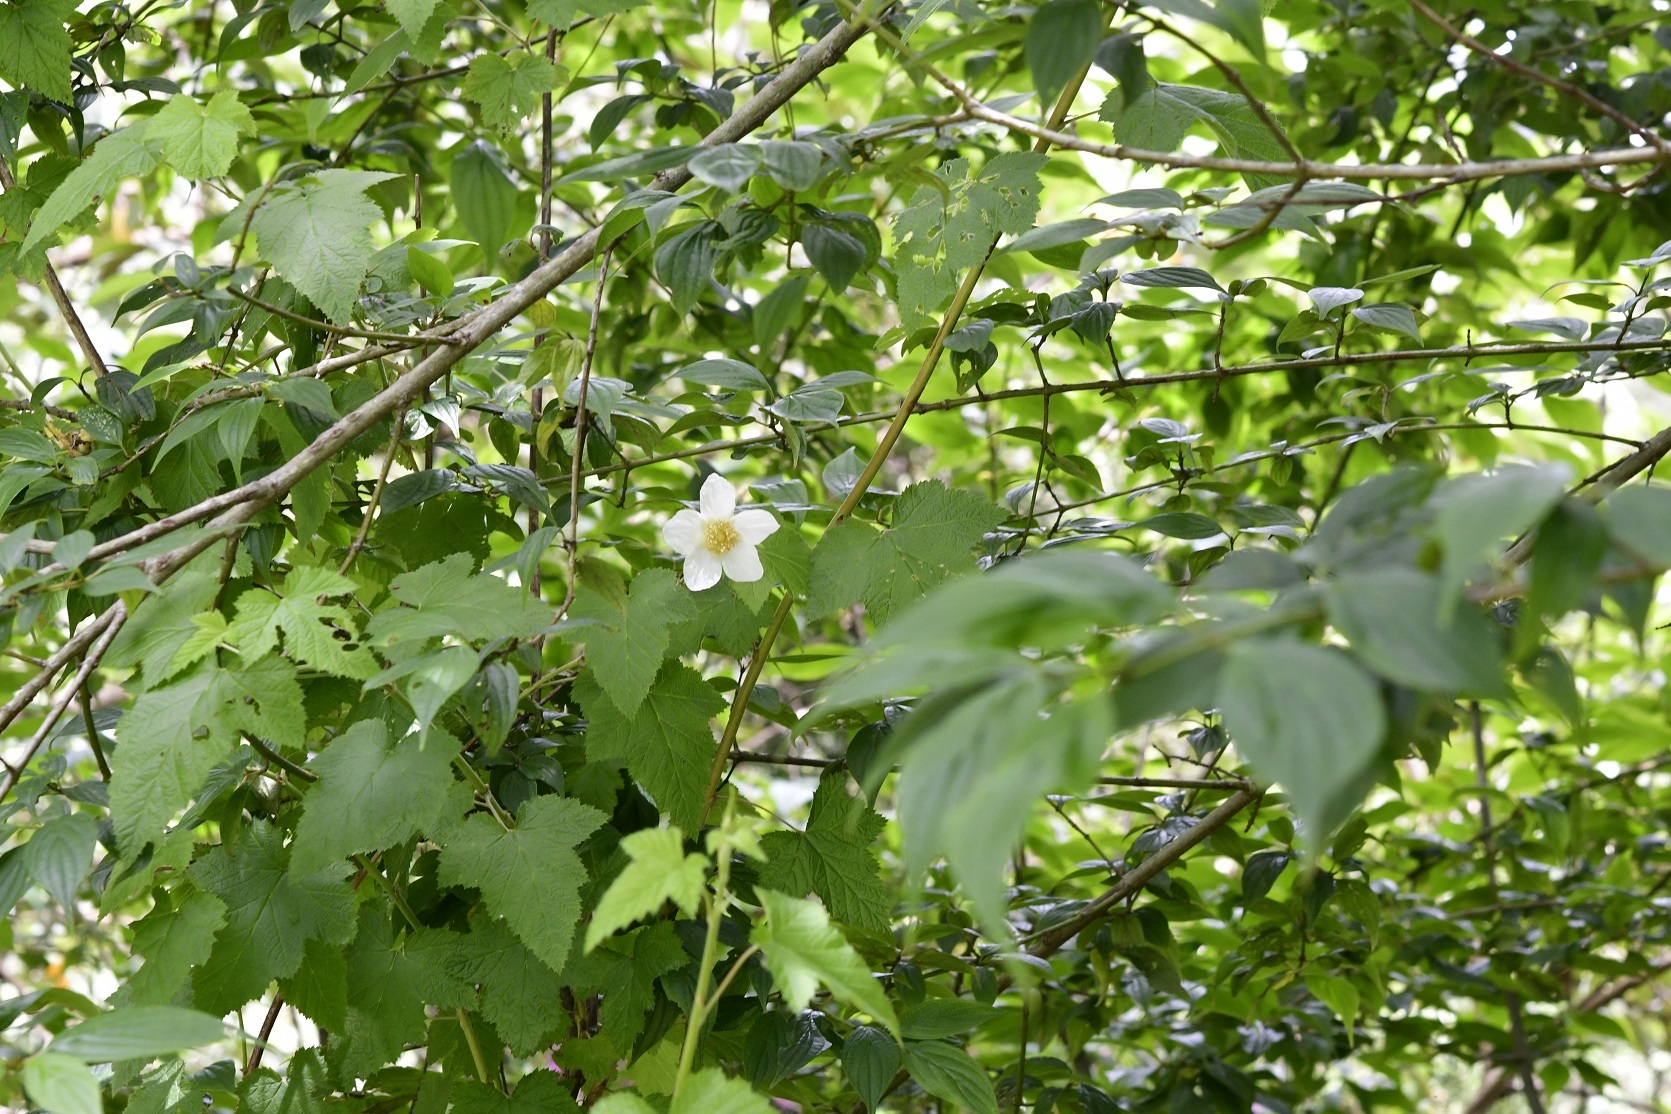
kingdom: Plantae
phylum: Tracheophyta
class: Magnoliopsida
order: Rosales
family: Rosaceae
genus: Rubus
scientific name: Rubus trilobus
